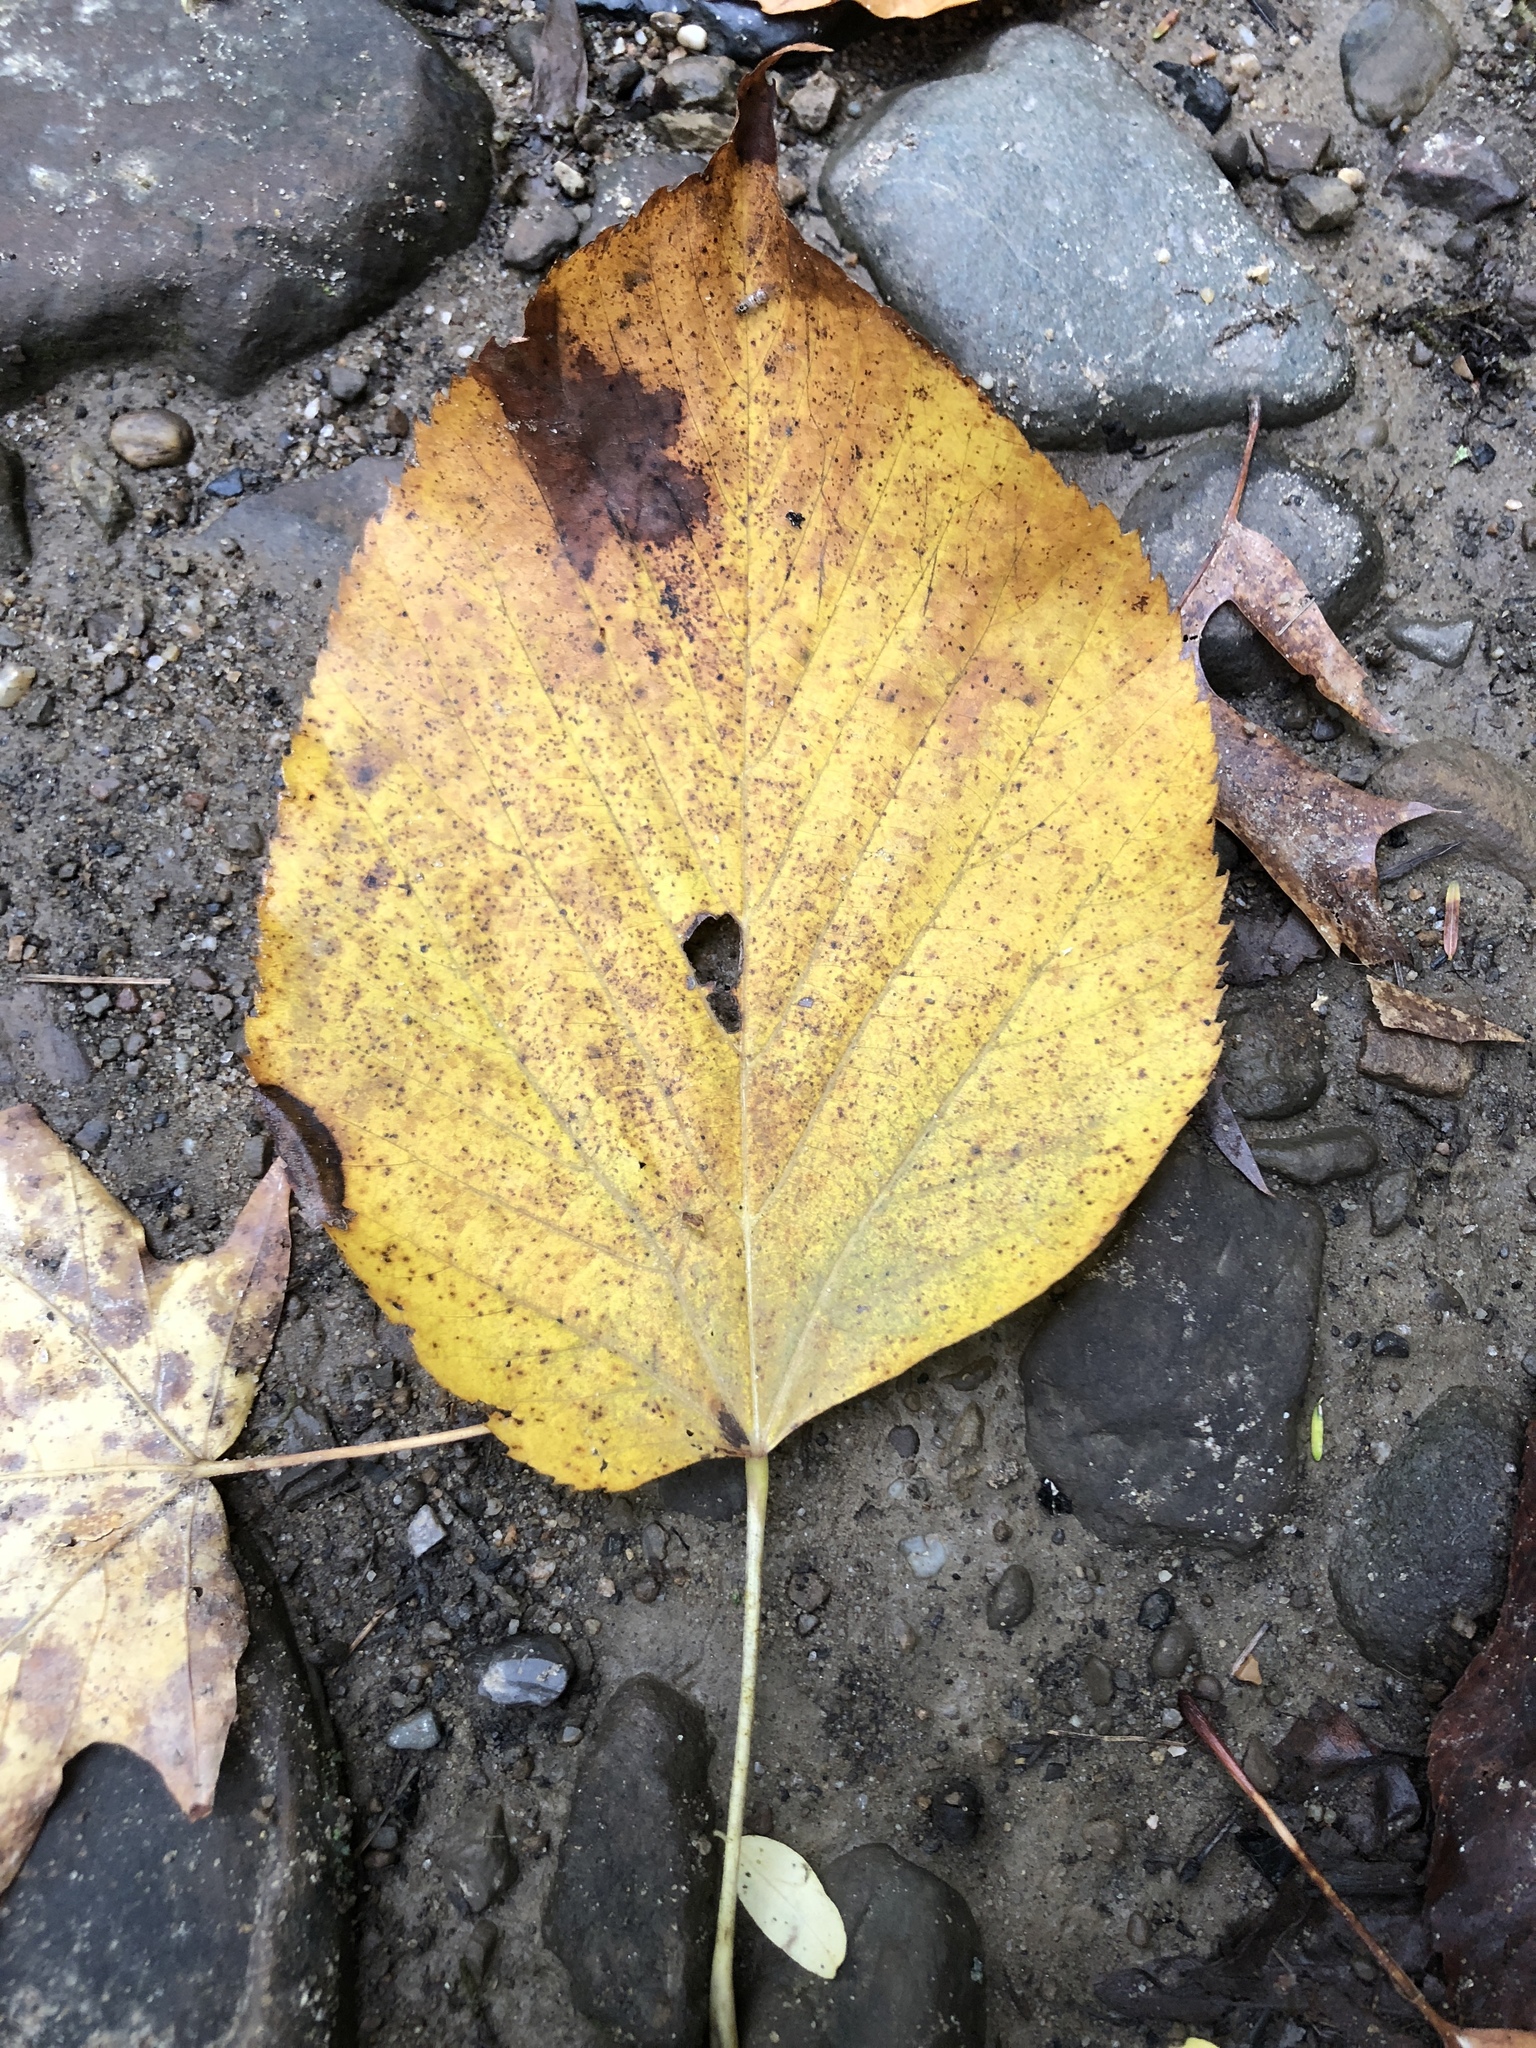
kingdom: Plantae
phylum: Tracheophyta
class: Magnoliopsida
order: Malvales
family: Malvaceae
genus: Tilia
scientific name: Tilia americana
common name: Basswood
